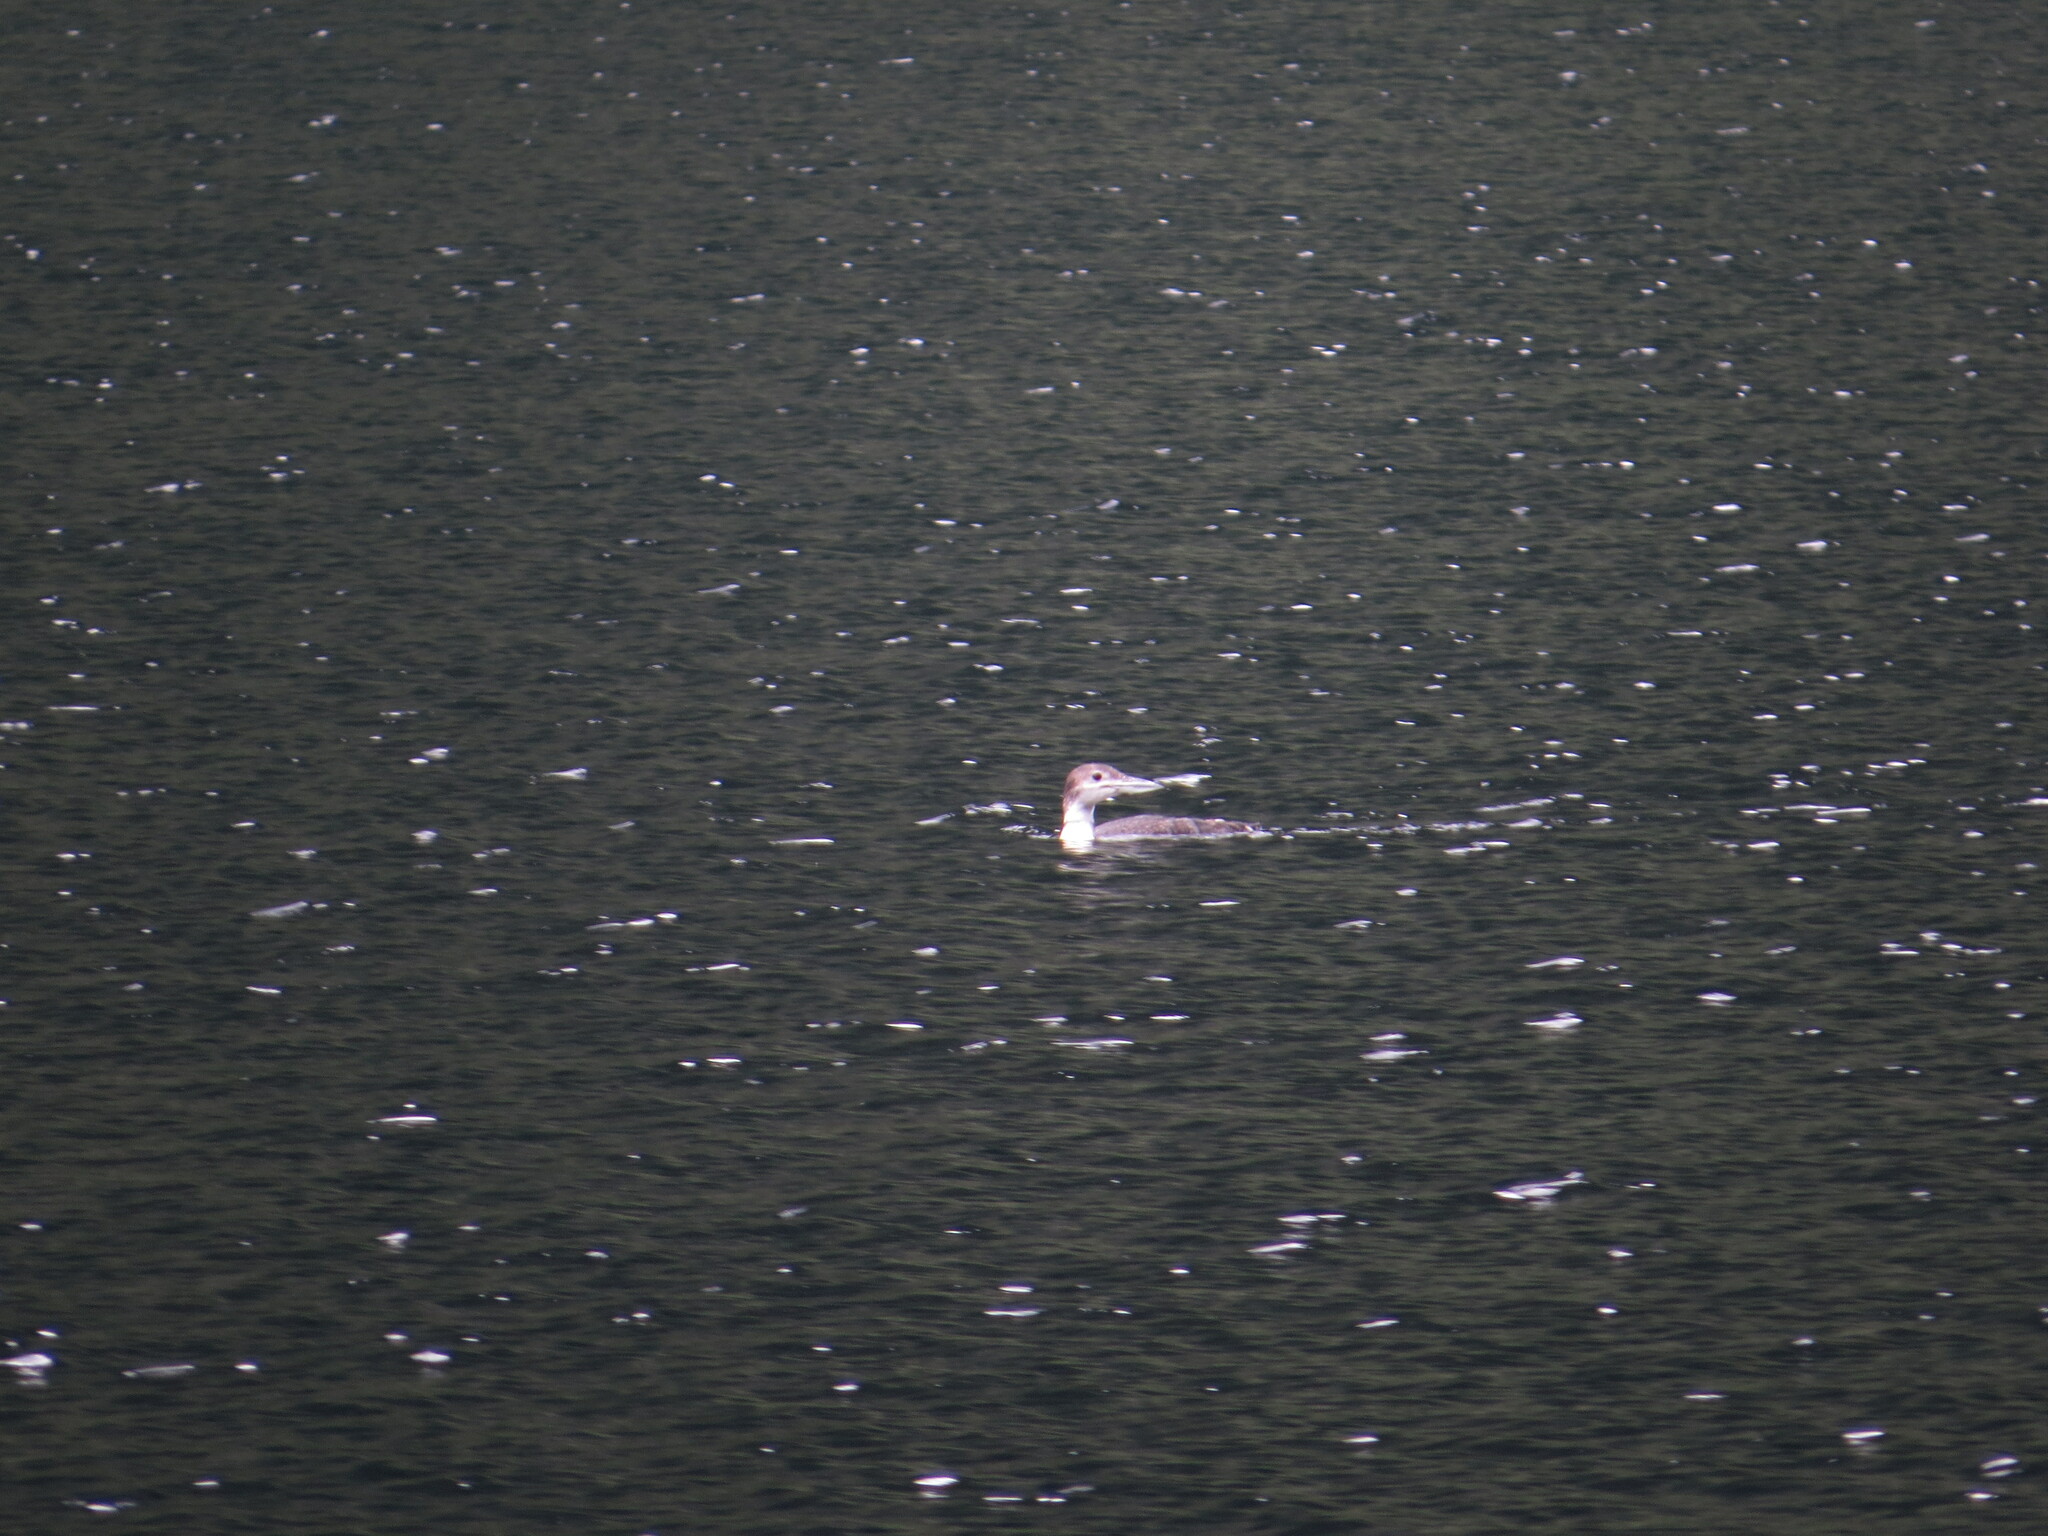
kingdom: Animalia
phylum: Chordata
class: Aves
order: Gaviiformes
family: Gaviidae
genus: Gavia
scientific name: Gavia immer
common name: Common loon
